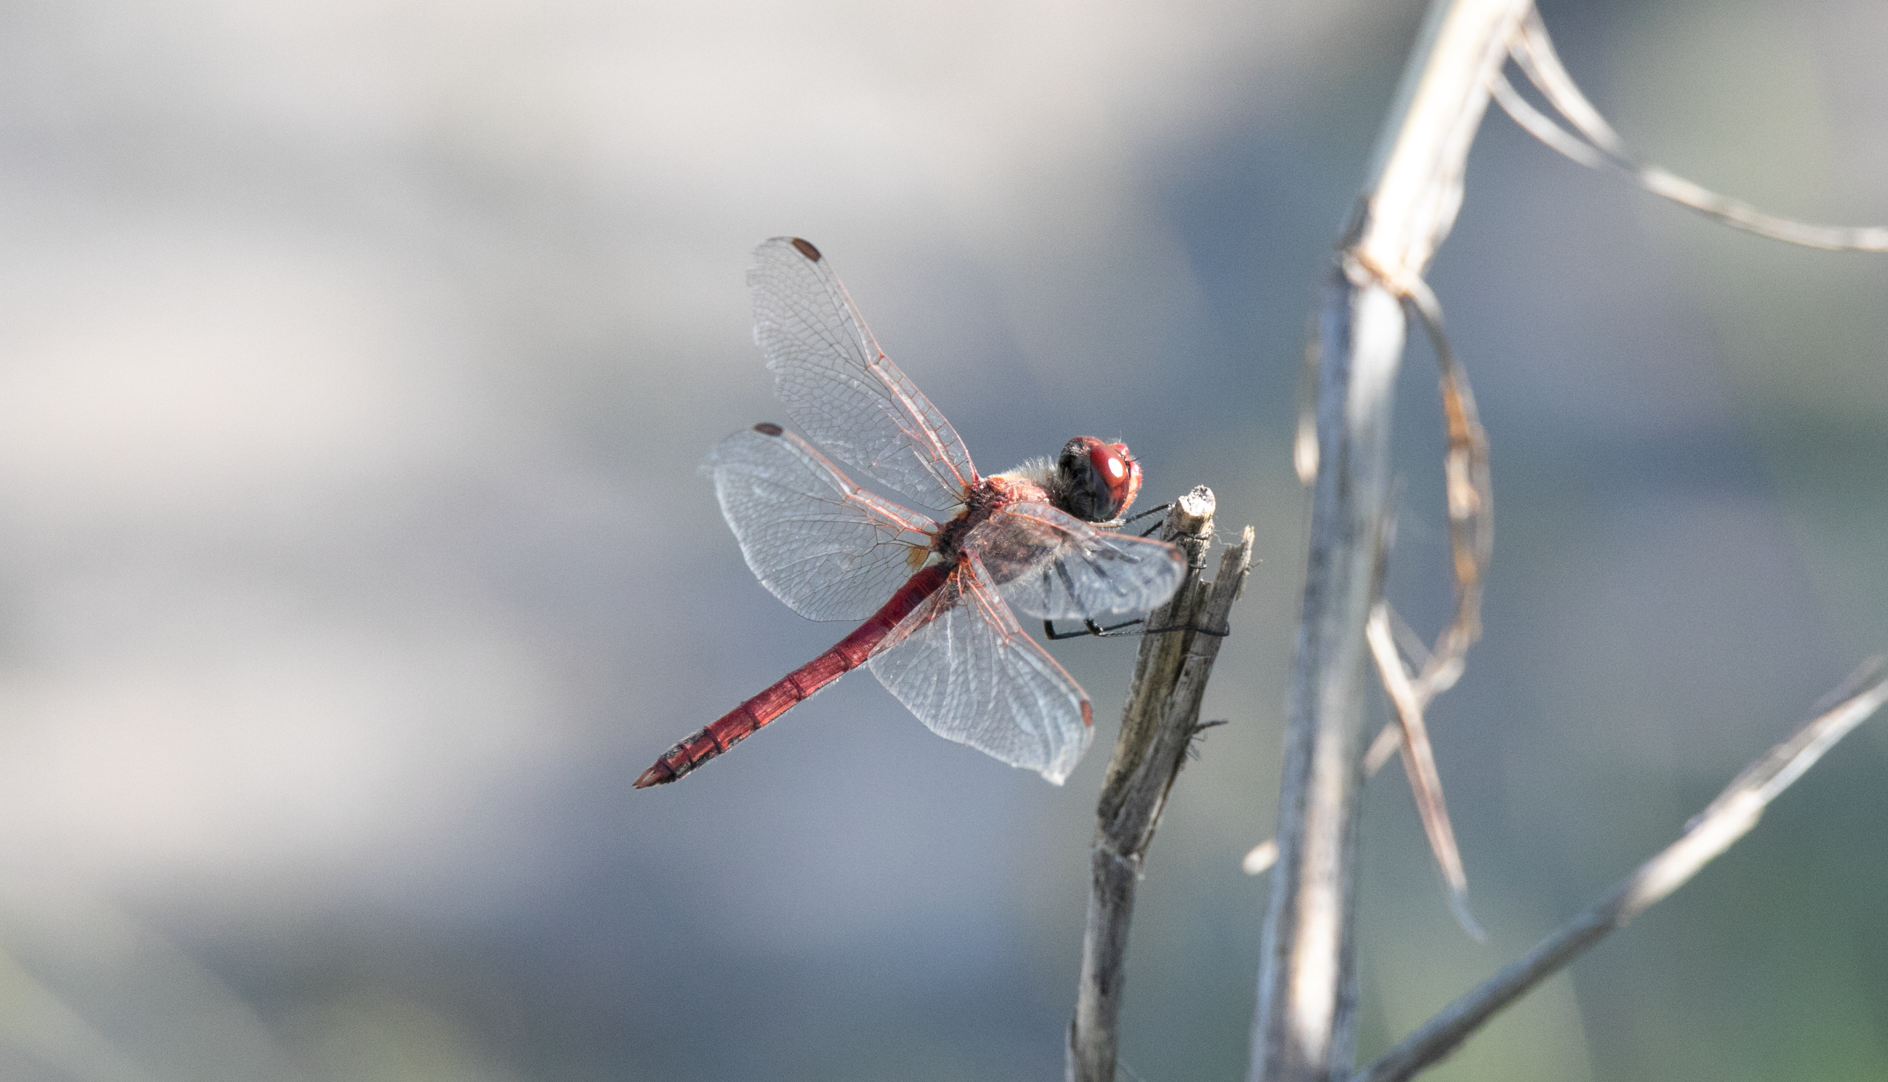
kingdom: Animalia
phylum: Arthropoda
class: Insecta
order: Odonata
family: Libellulidae
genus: Sympetrum
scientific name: Sympetrum fonscolombii
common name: Red-veined darter
